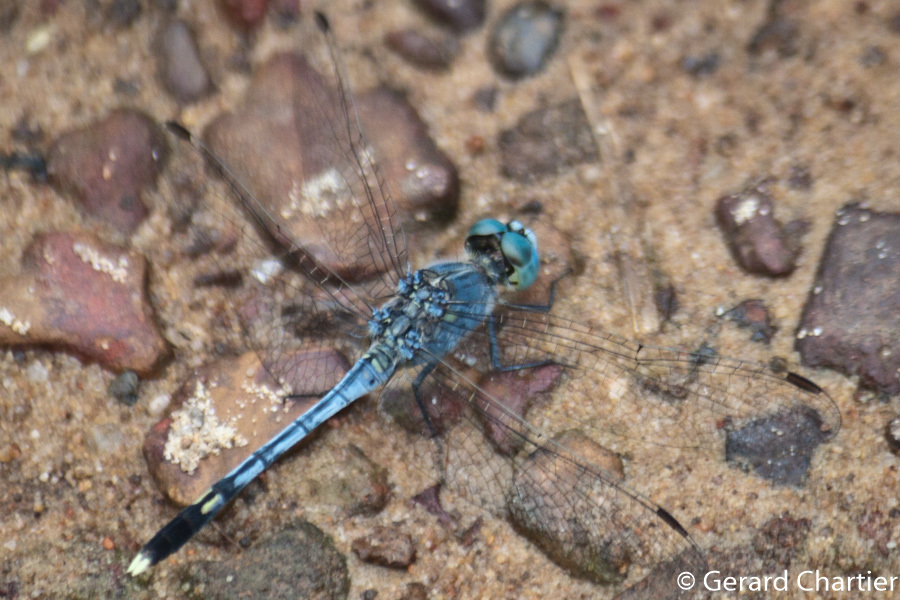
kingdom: Animalia
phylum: Arthropoda
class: Insecta
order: Odonata
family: Libellulidae
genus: Diplacodes
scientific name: Diplacodes trivialis
